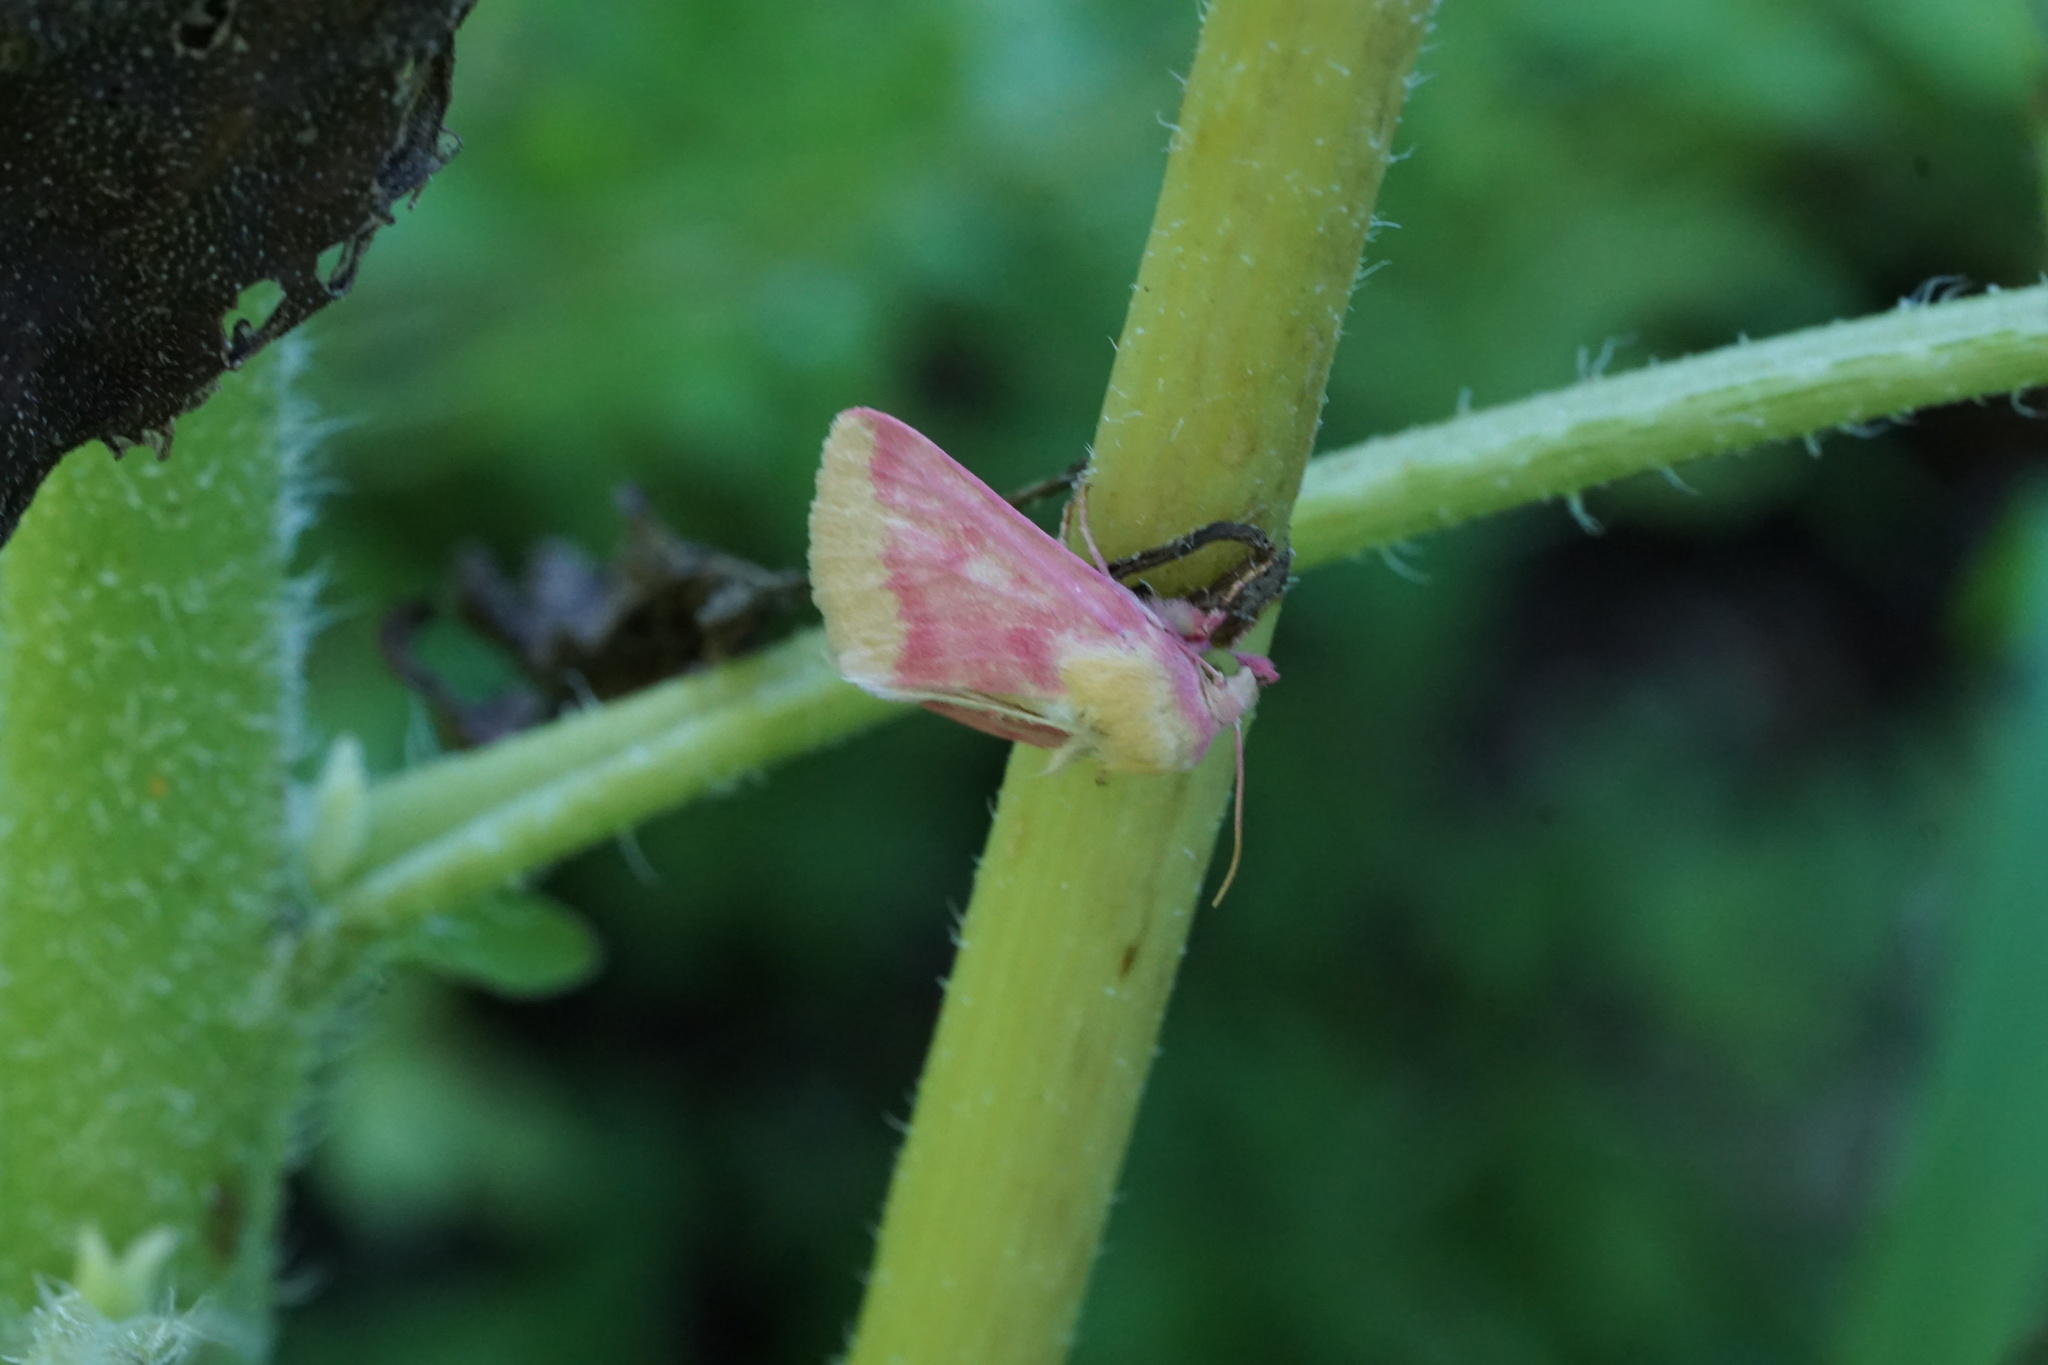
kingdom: Animalia
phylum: Arthropoda
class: Insecta
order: Lepidoptera
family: Noctuidae
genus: Schinia
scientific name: Schinia florida
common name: Primrose moth
